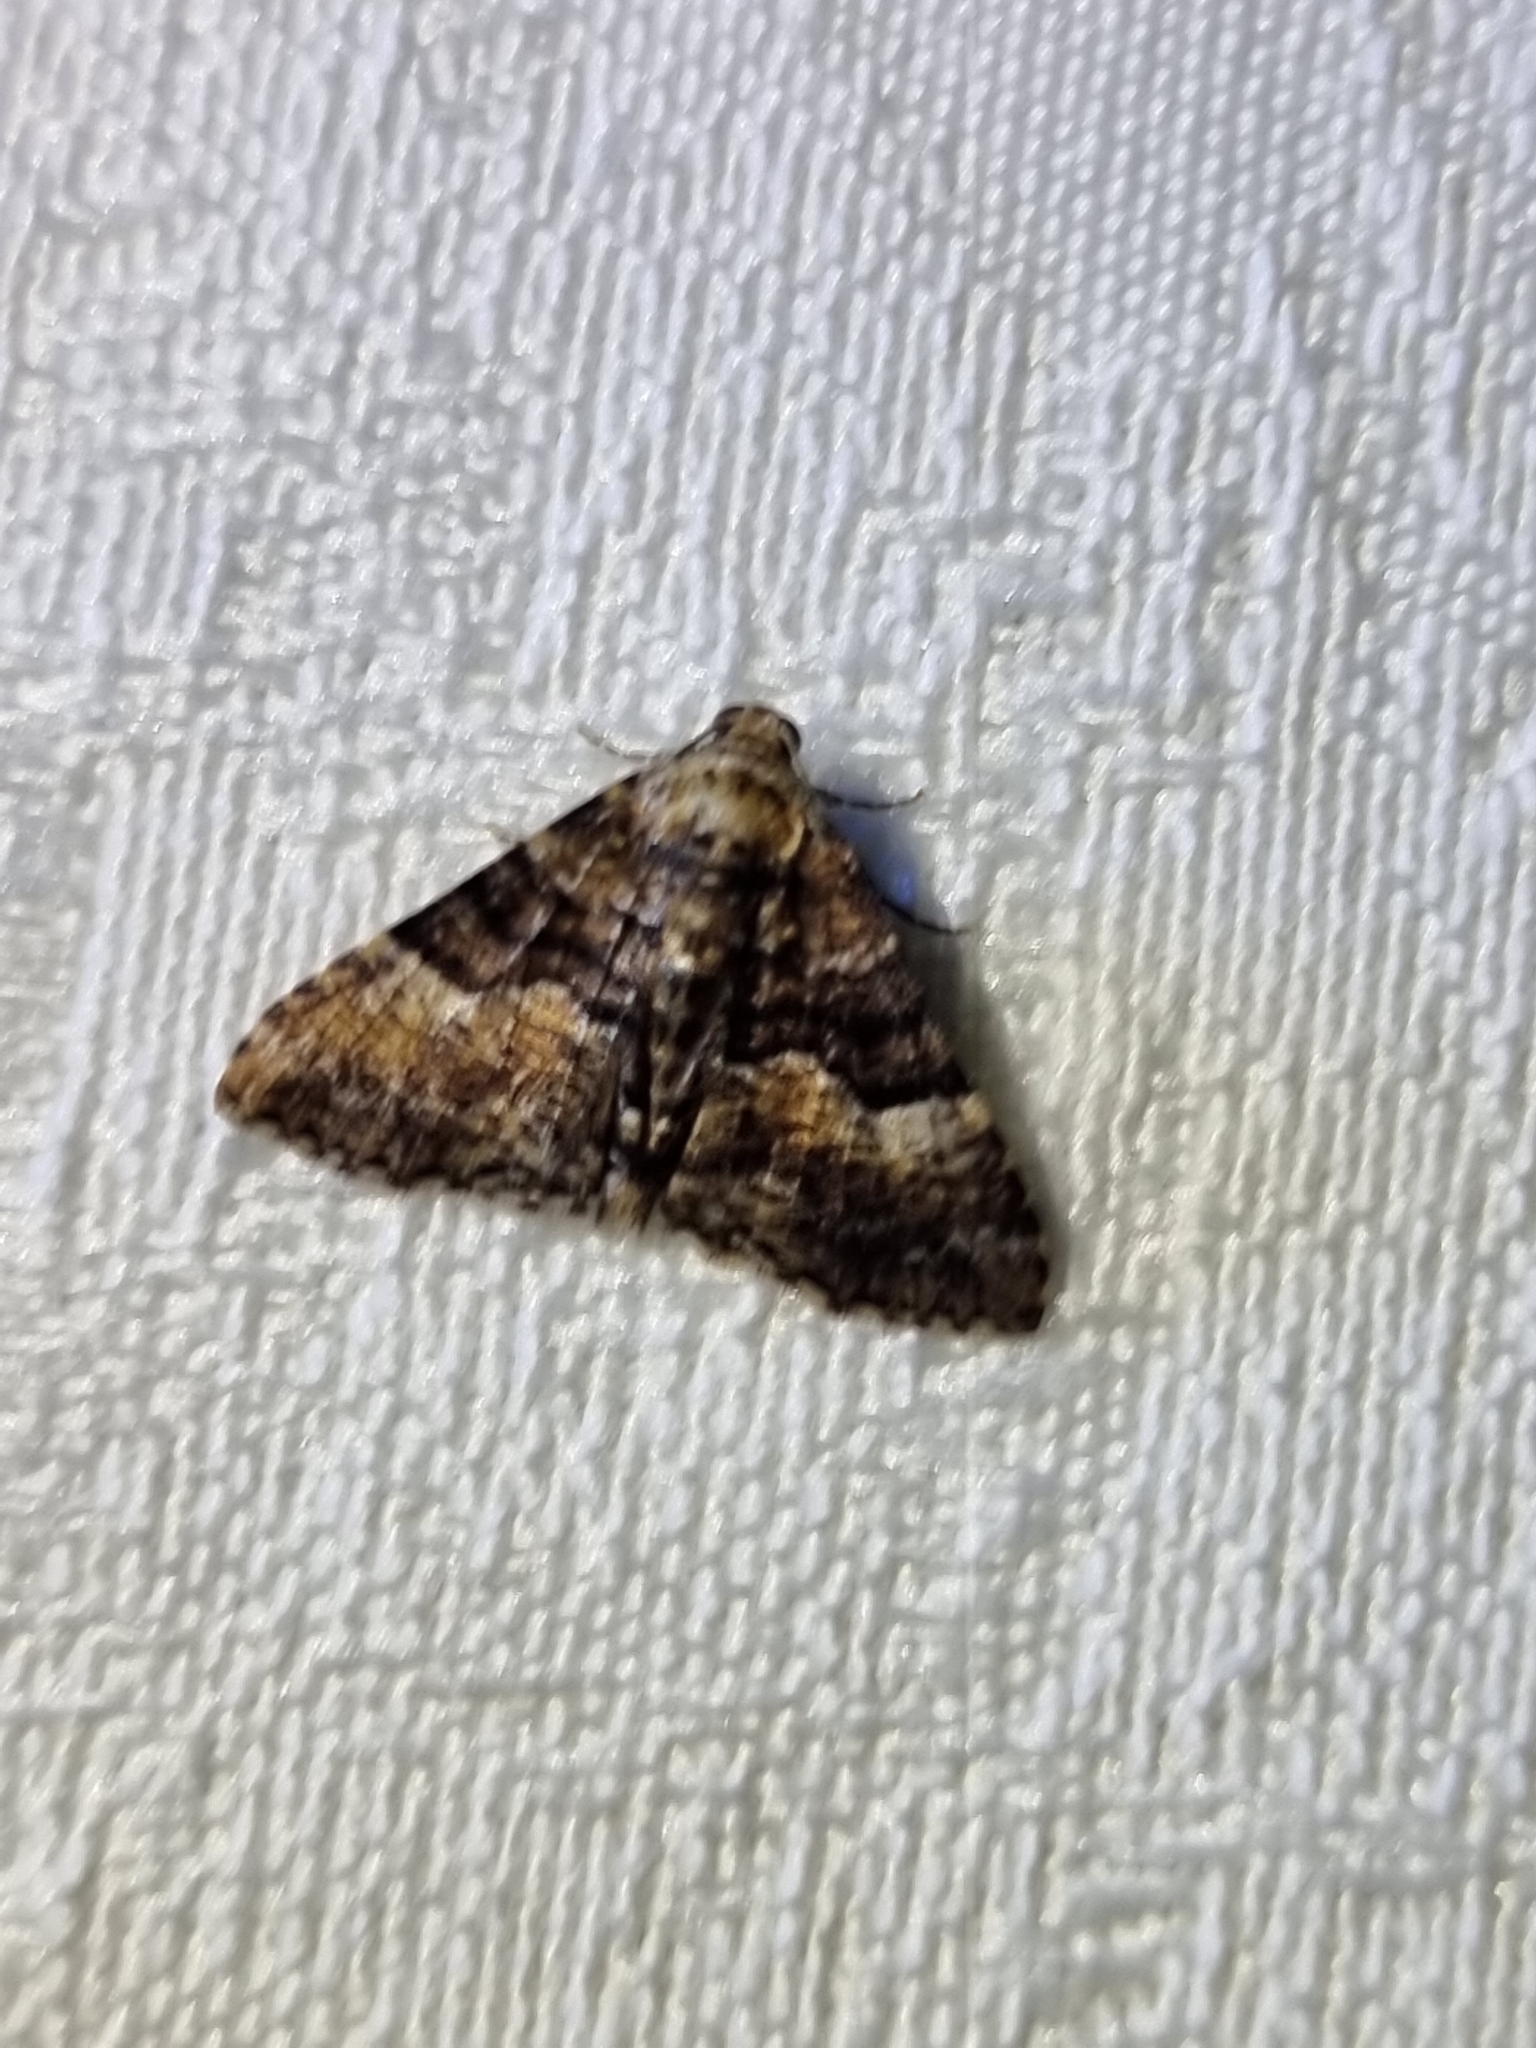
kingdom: Animalia
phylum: Arthropoda
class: Insecta
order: Lepidoptera
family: Geometridae
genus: Aporoctena
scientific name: Aporoctena scierodes
